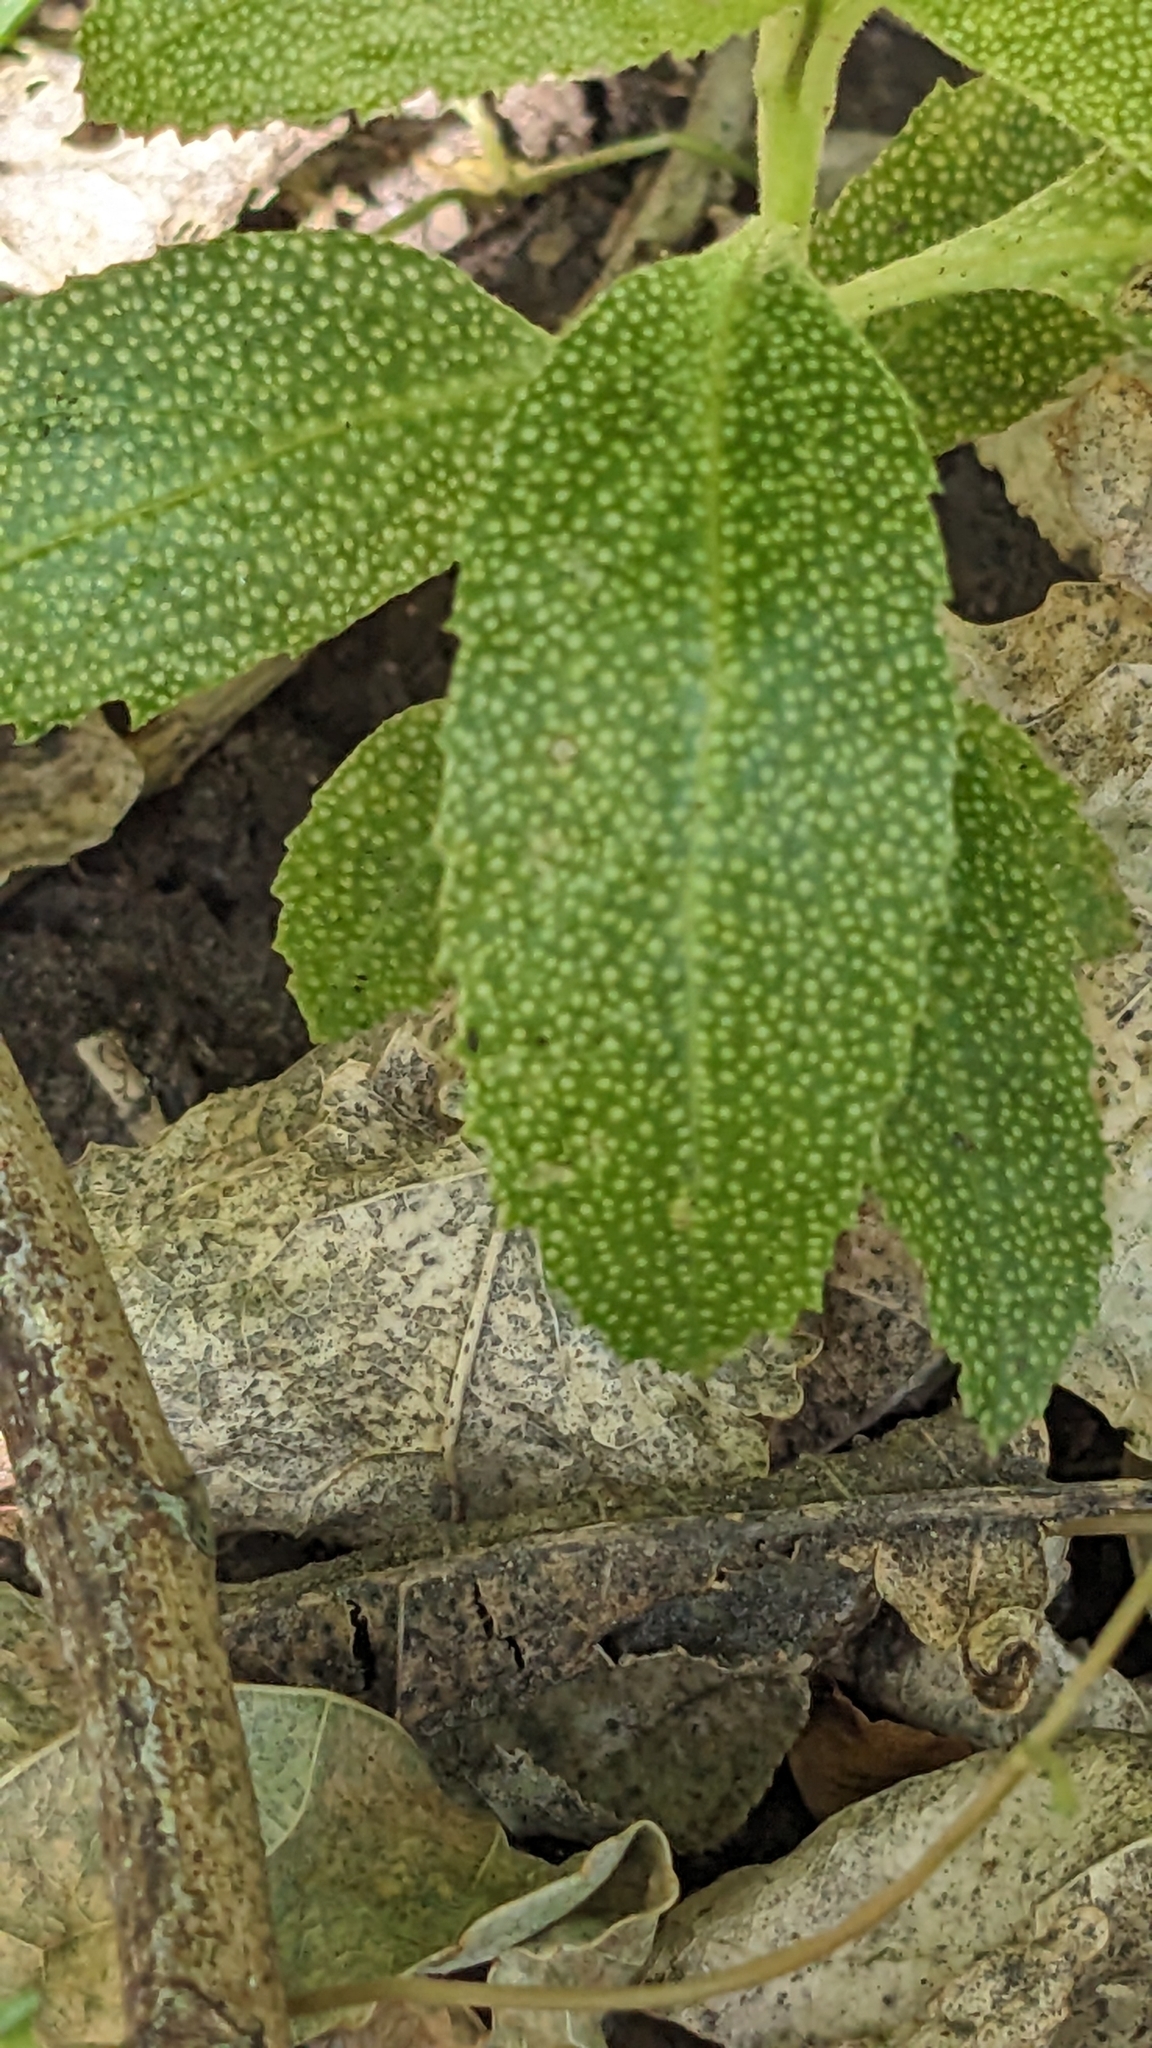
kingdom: Plantae
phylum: Tracheophyta
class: Magnoliopsida
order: Lamiales
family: Scrophulariaceae
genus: Myoporum
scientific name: Myoporum laetum
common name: Ngaio tree
